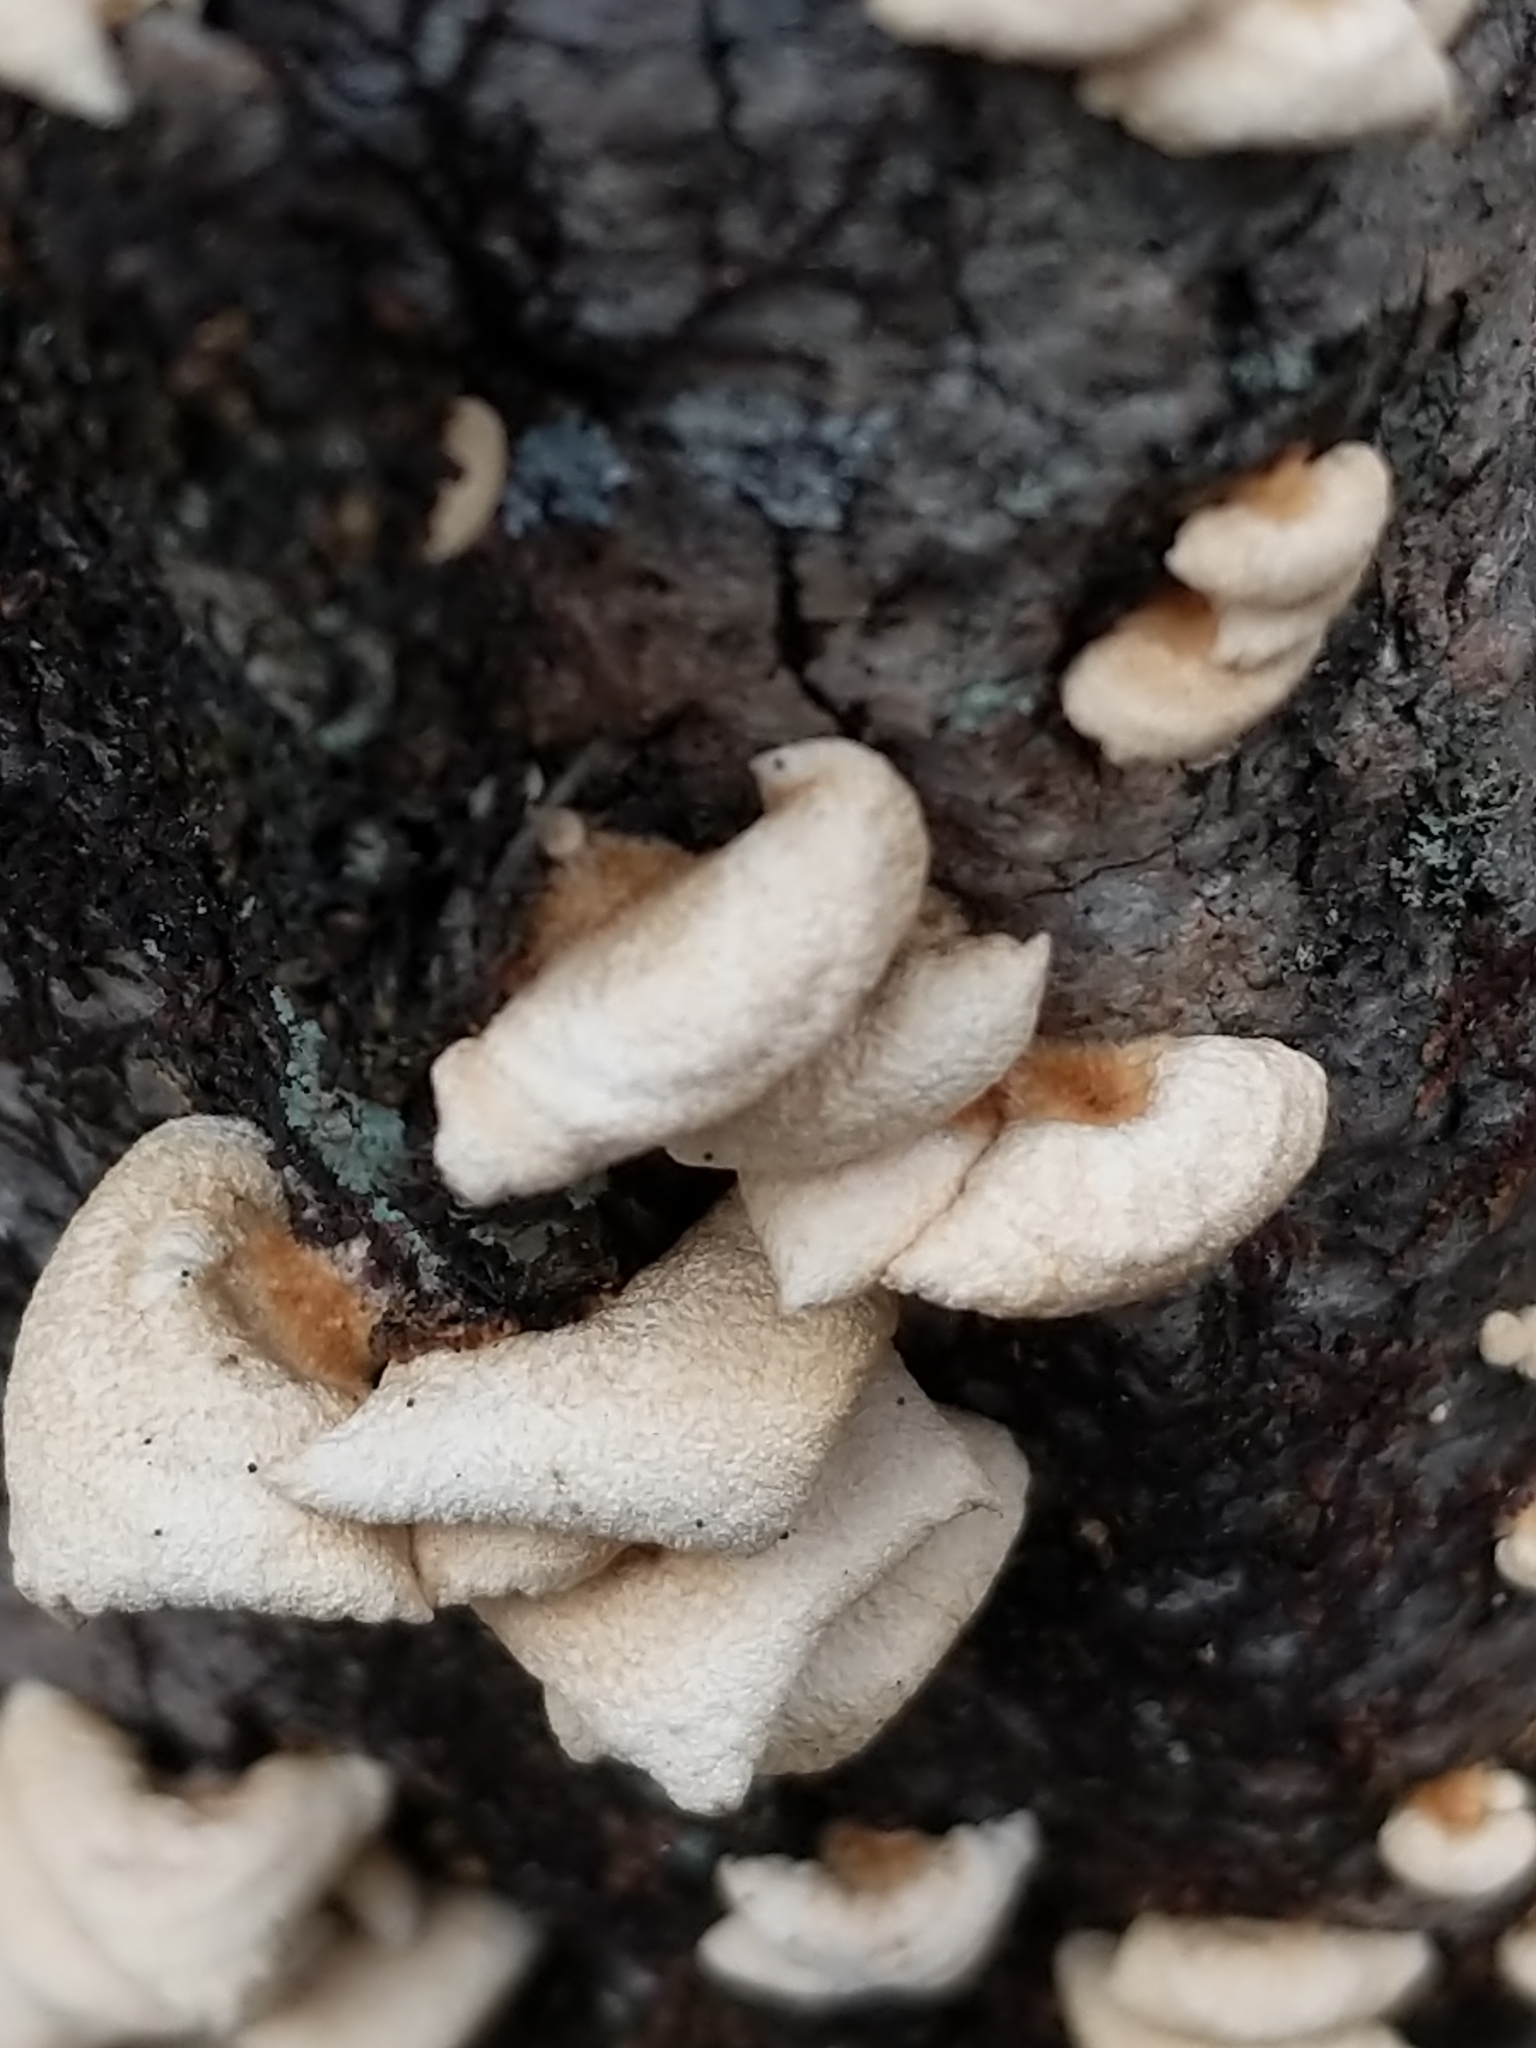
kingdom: Fungi
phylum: Basidiomycota
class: Agaricomycetes
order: Agaricales
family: Mycenaceae
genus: Panellus
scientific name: Panellus stipticus
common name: Bitter oysterling
